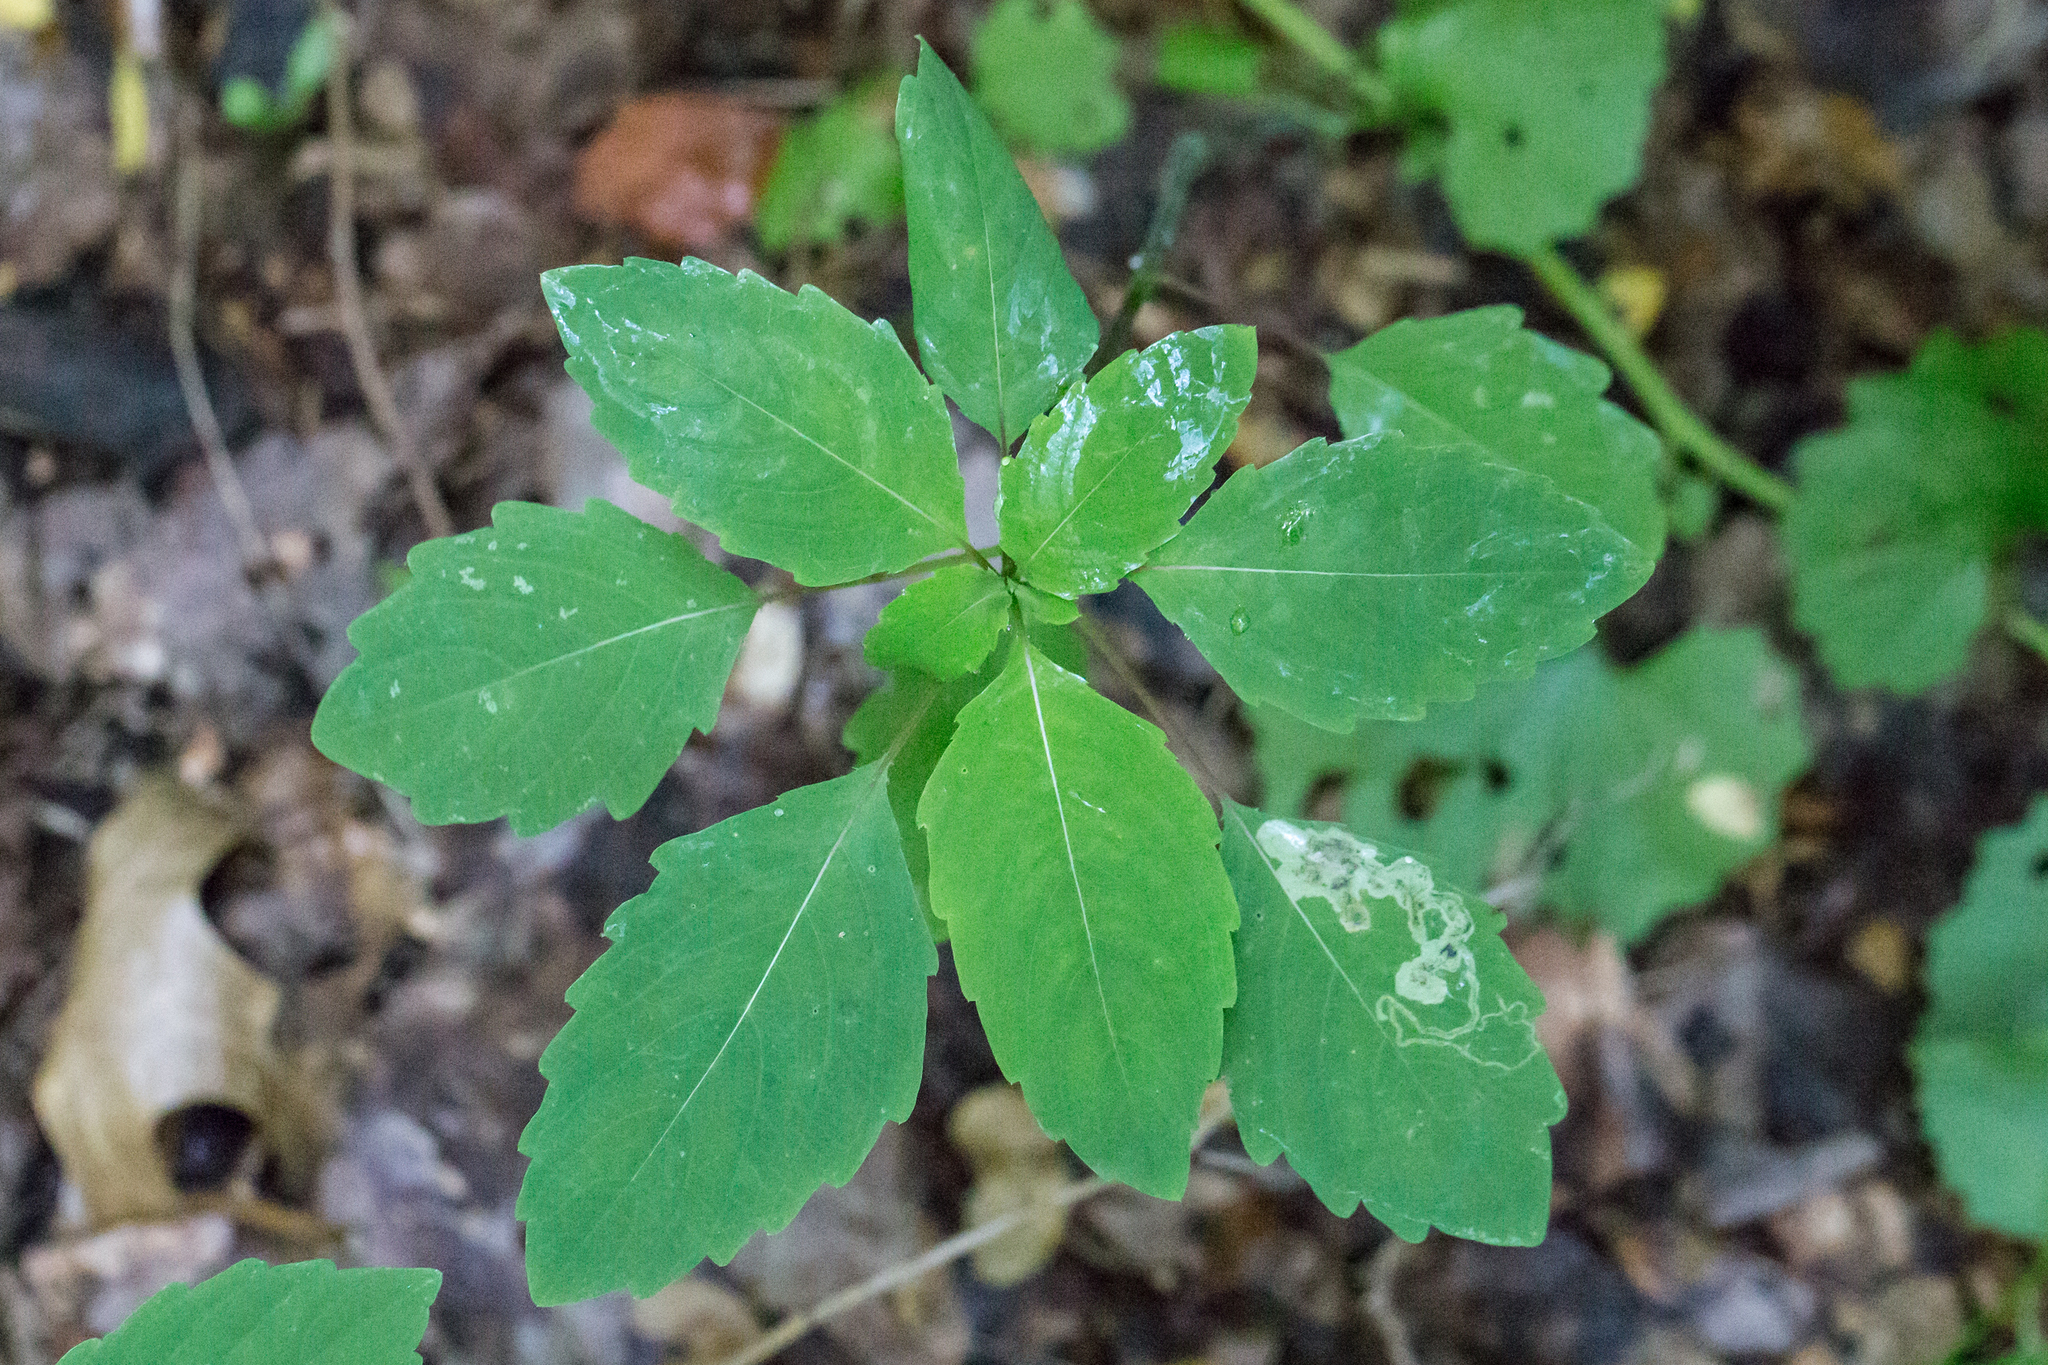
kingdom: Plantae
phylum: Tracheophyta
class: Magnoliopsida
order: Ericales
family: Balsaminaceae
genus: Impatiens
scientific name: Impatiens capensis
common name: Orange balsam
